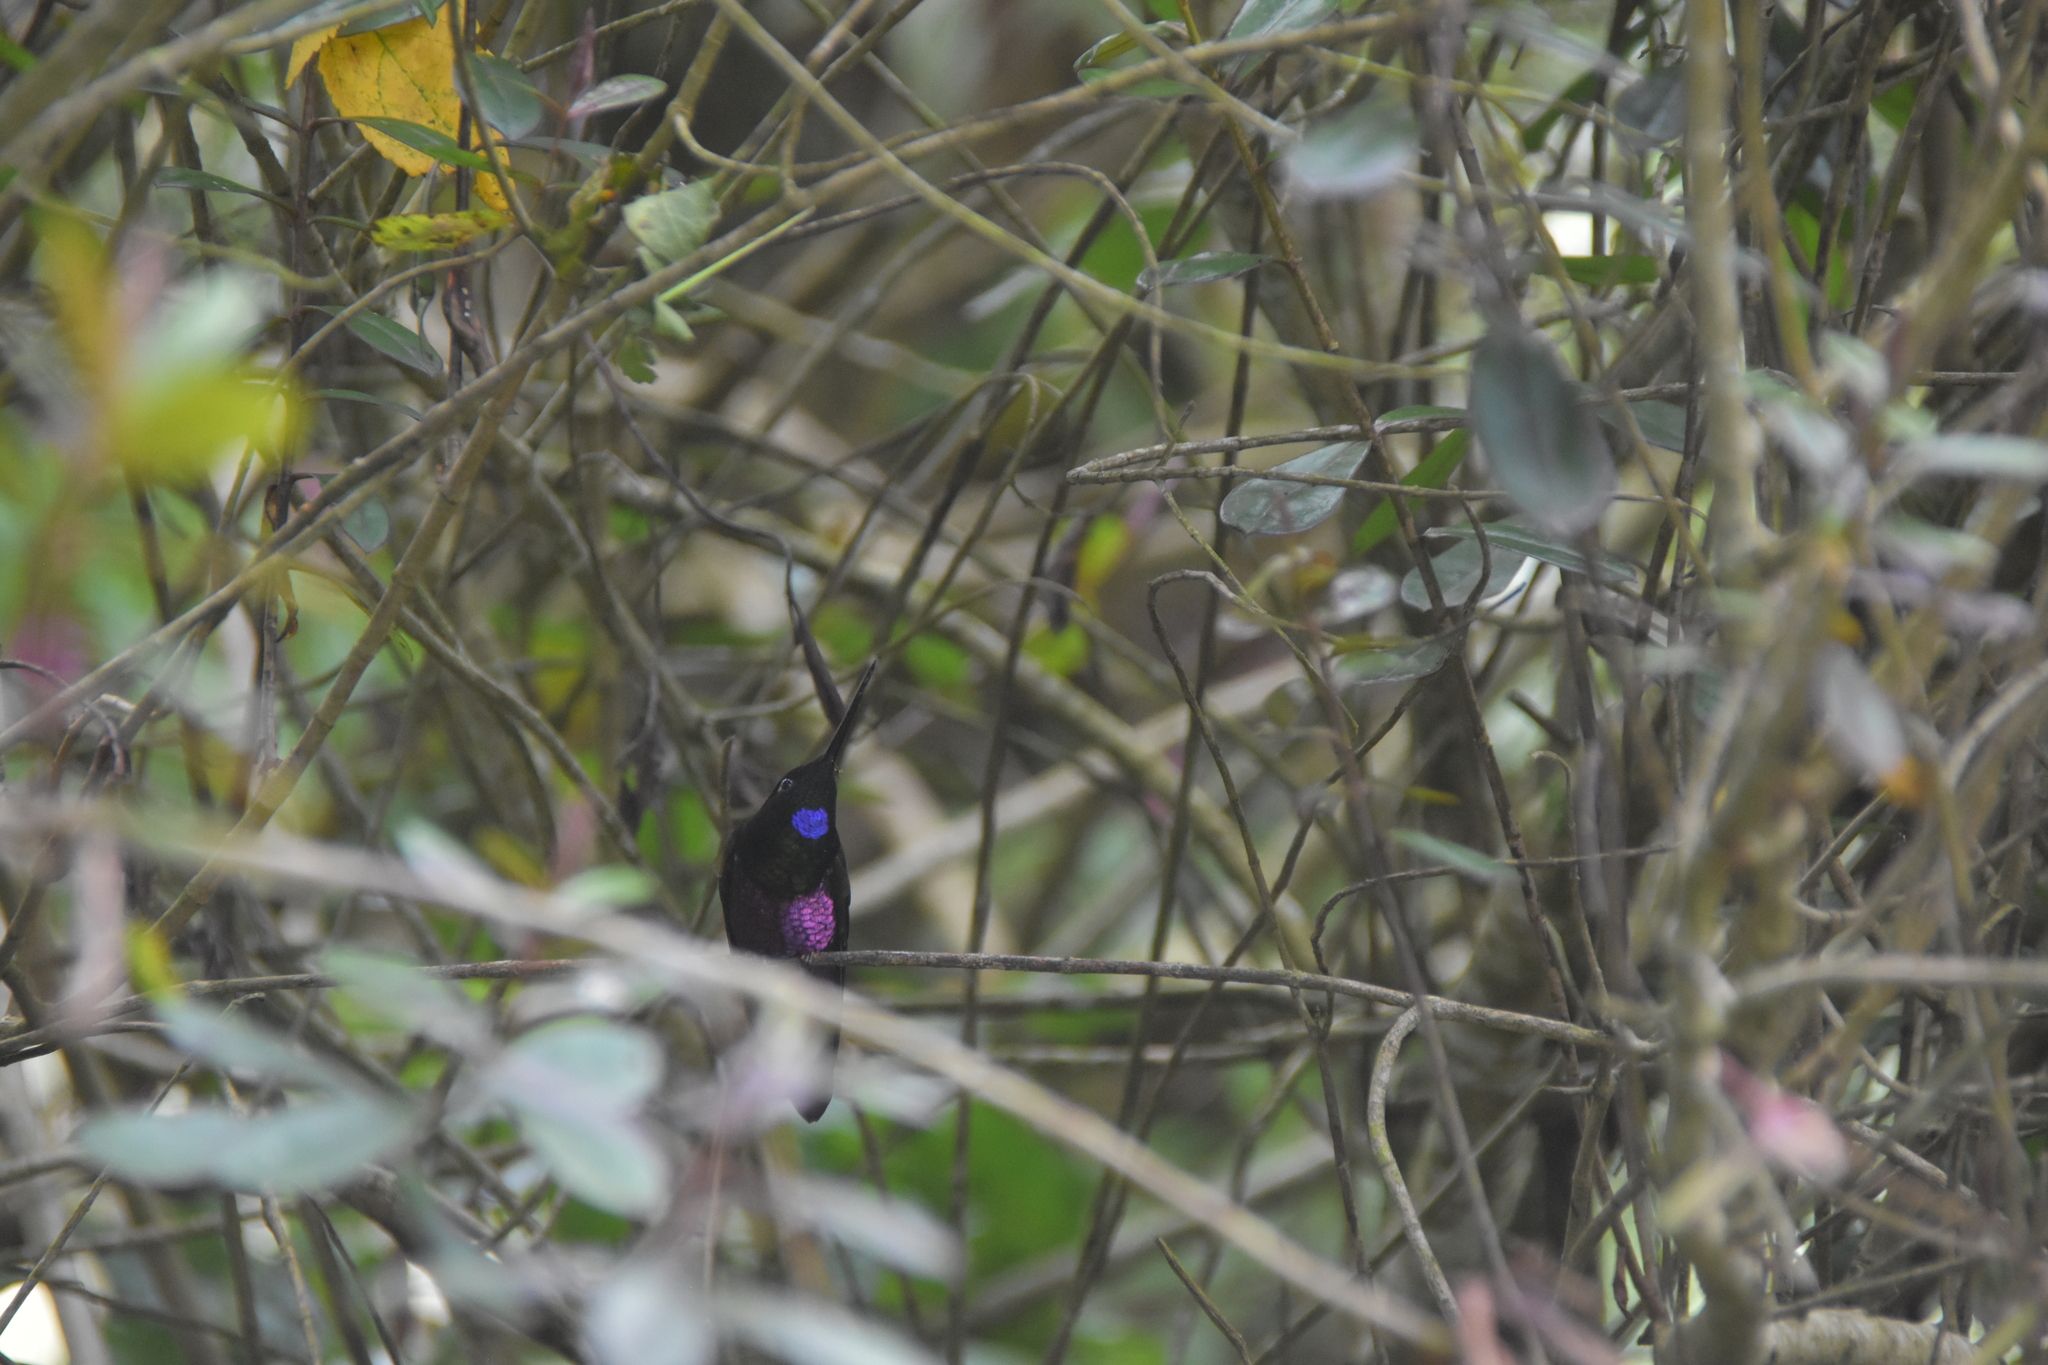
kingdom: Animalia
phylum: Chordata
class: Aves
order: Apodiformes
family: Trochilidae
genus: Coeligena
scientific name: Coeligena helianthea
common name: Blue-throated starfrontlet
